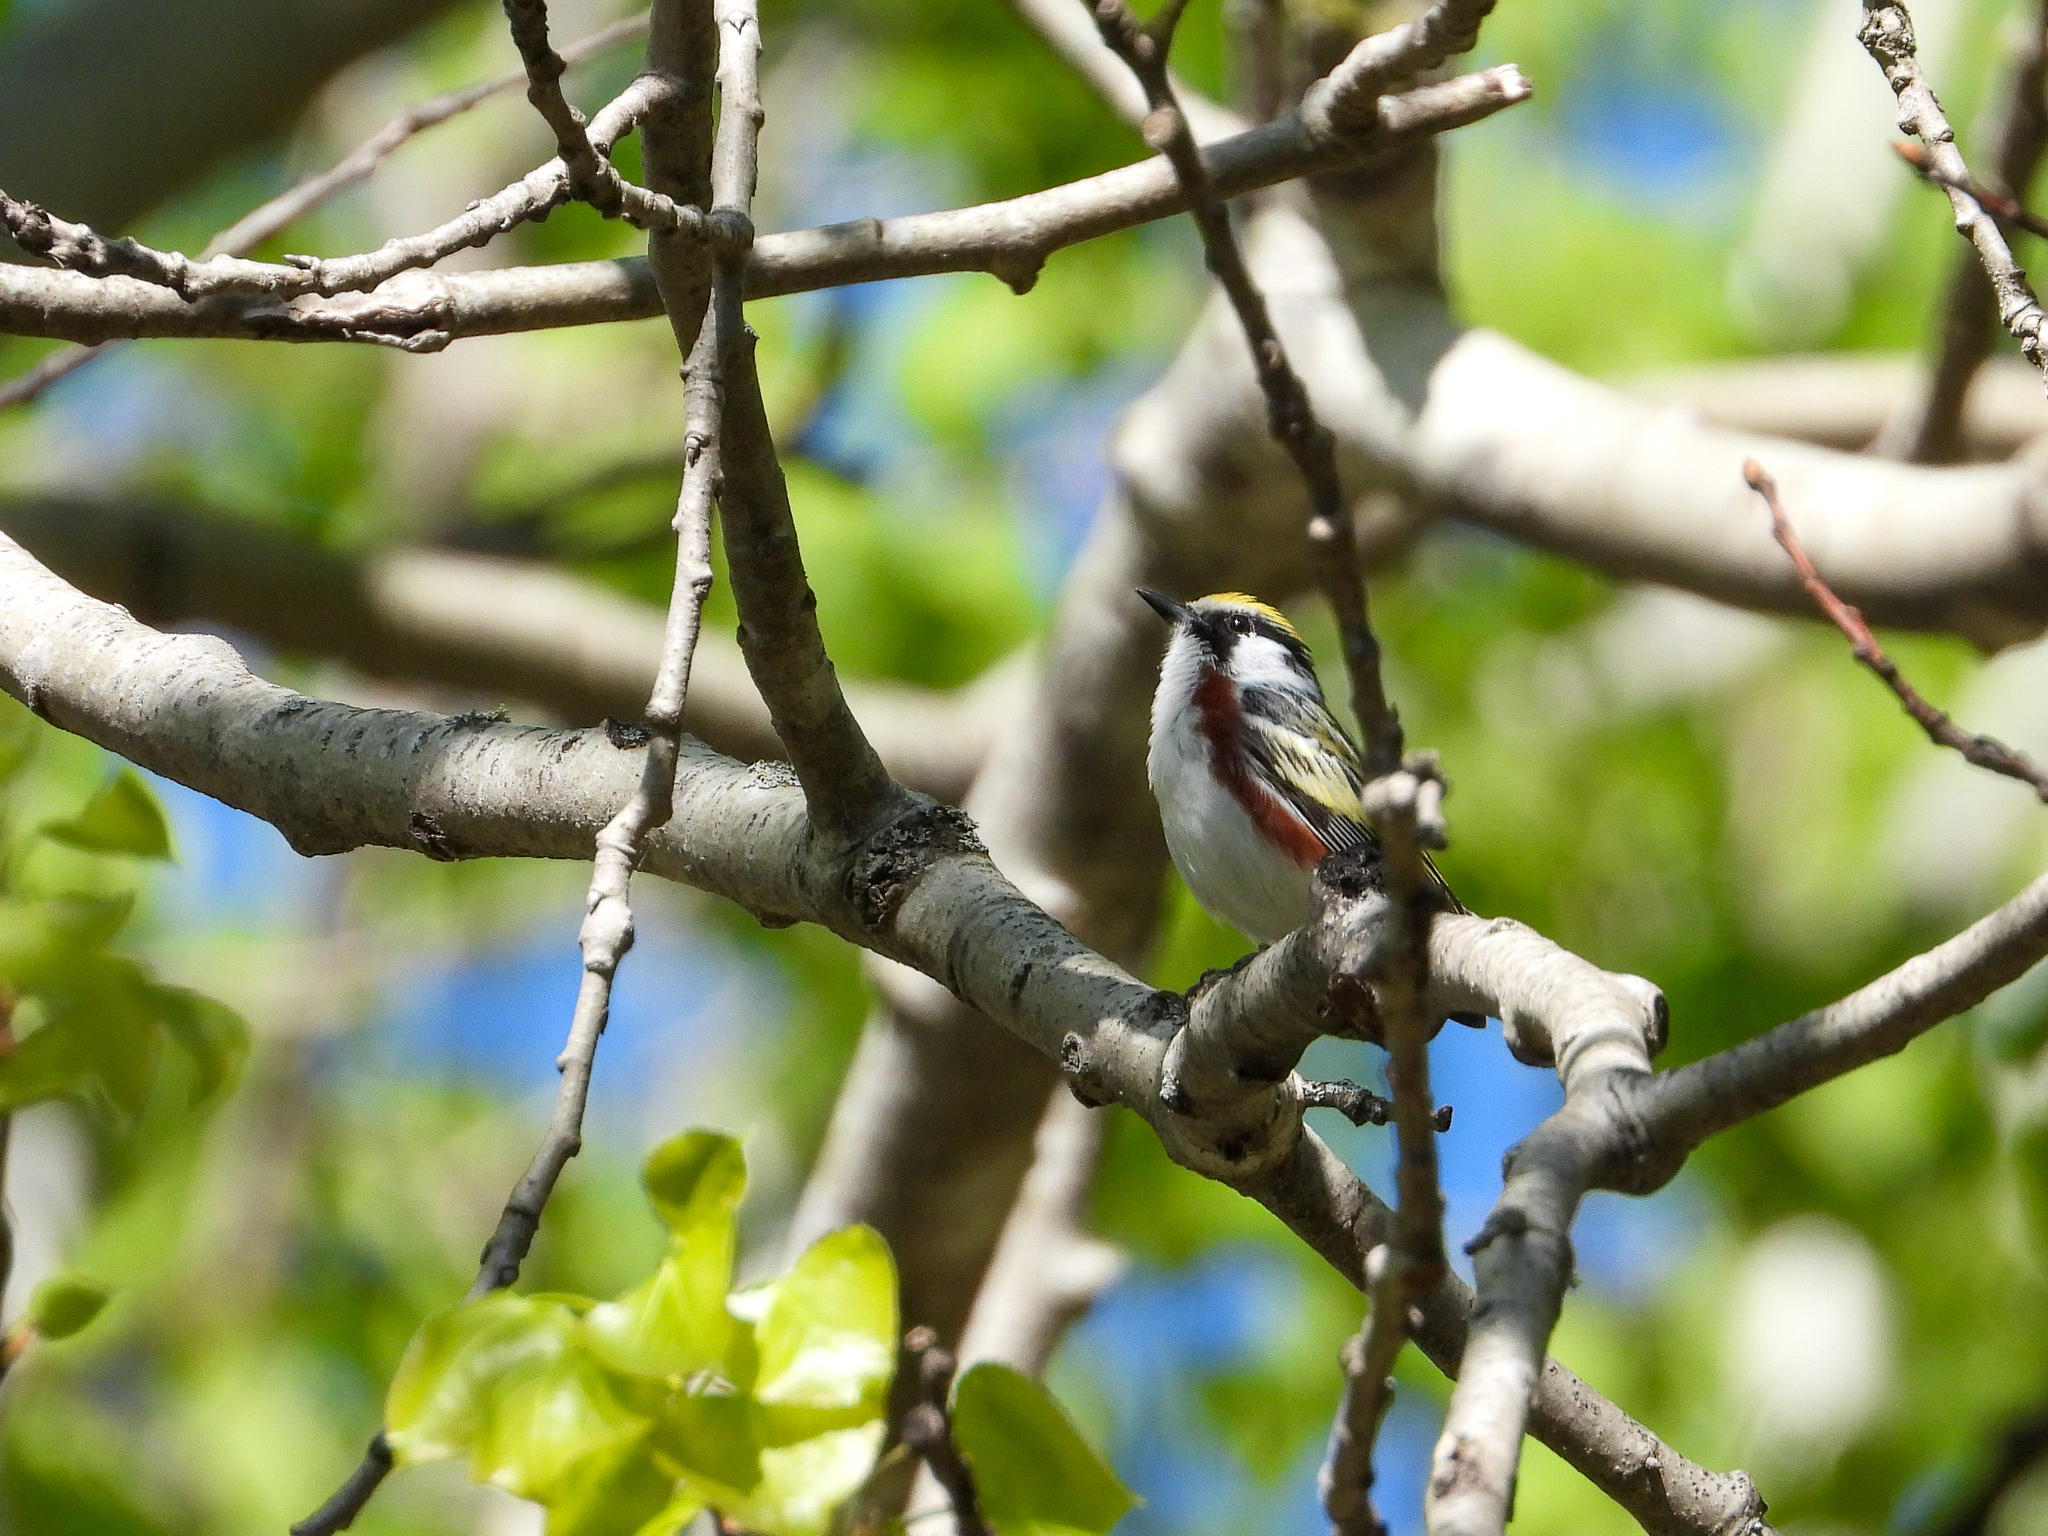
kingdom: Animalia
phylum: Chordata
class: Aves
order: Passeriformes
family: Parulidae
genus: Setophaga
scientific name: Setophaga pensylvanica
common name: Chestnut-sided warbler
